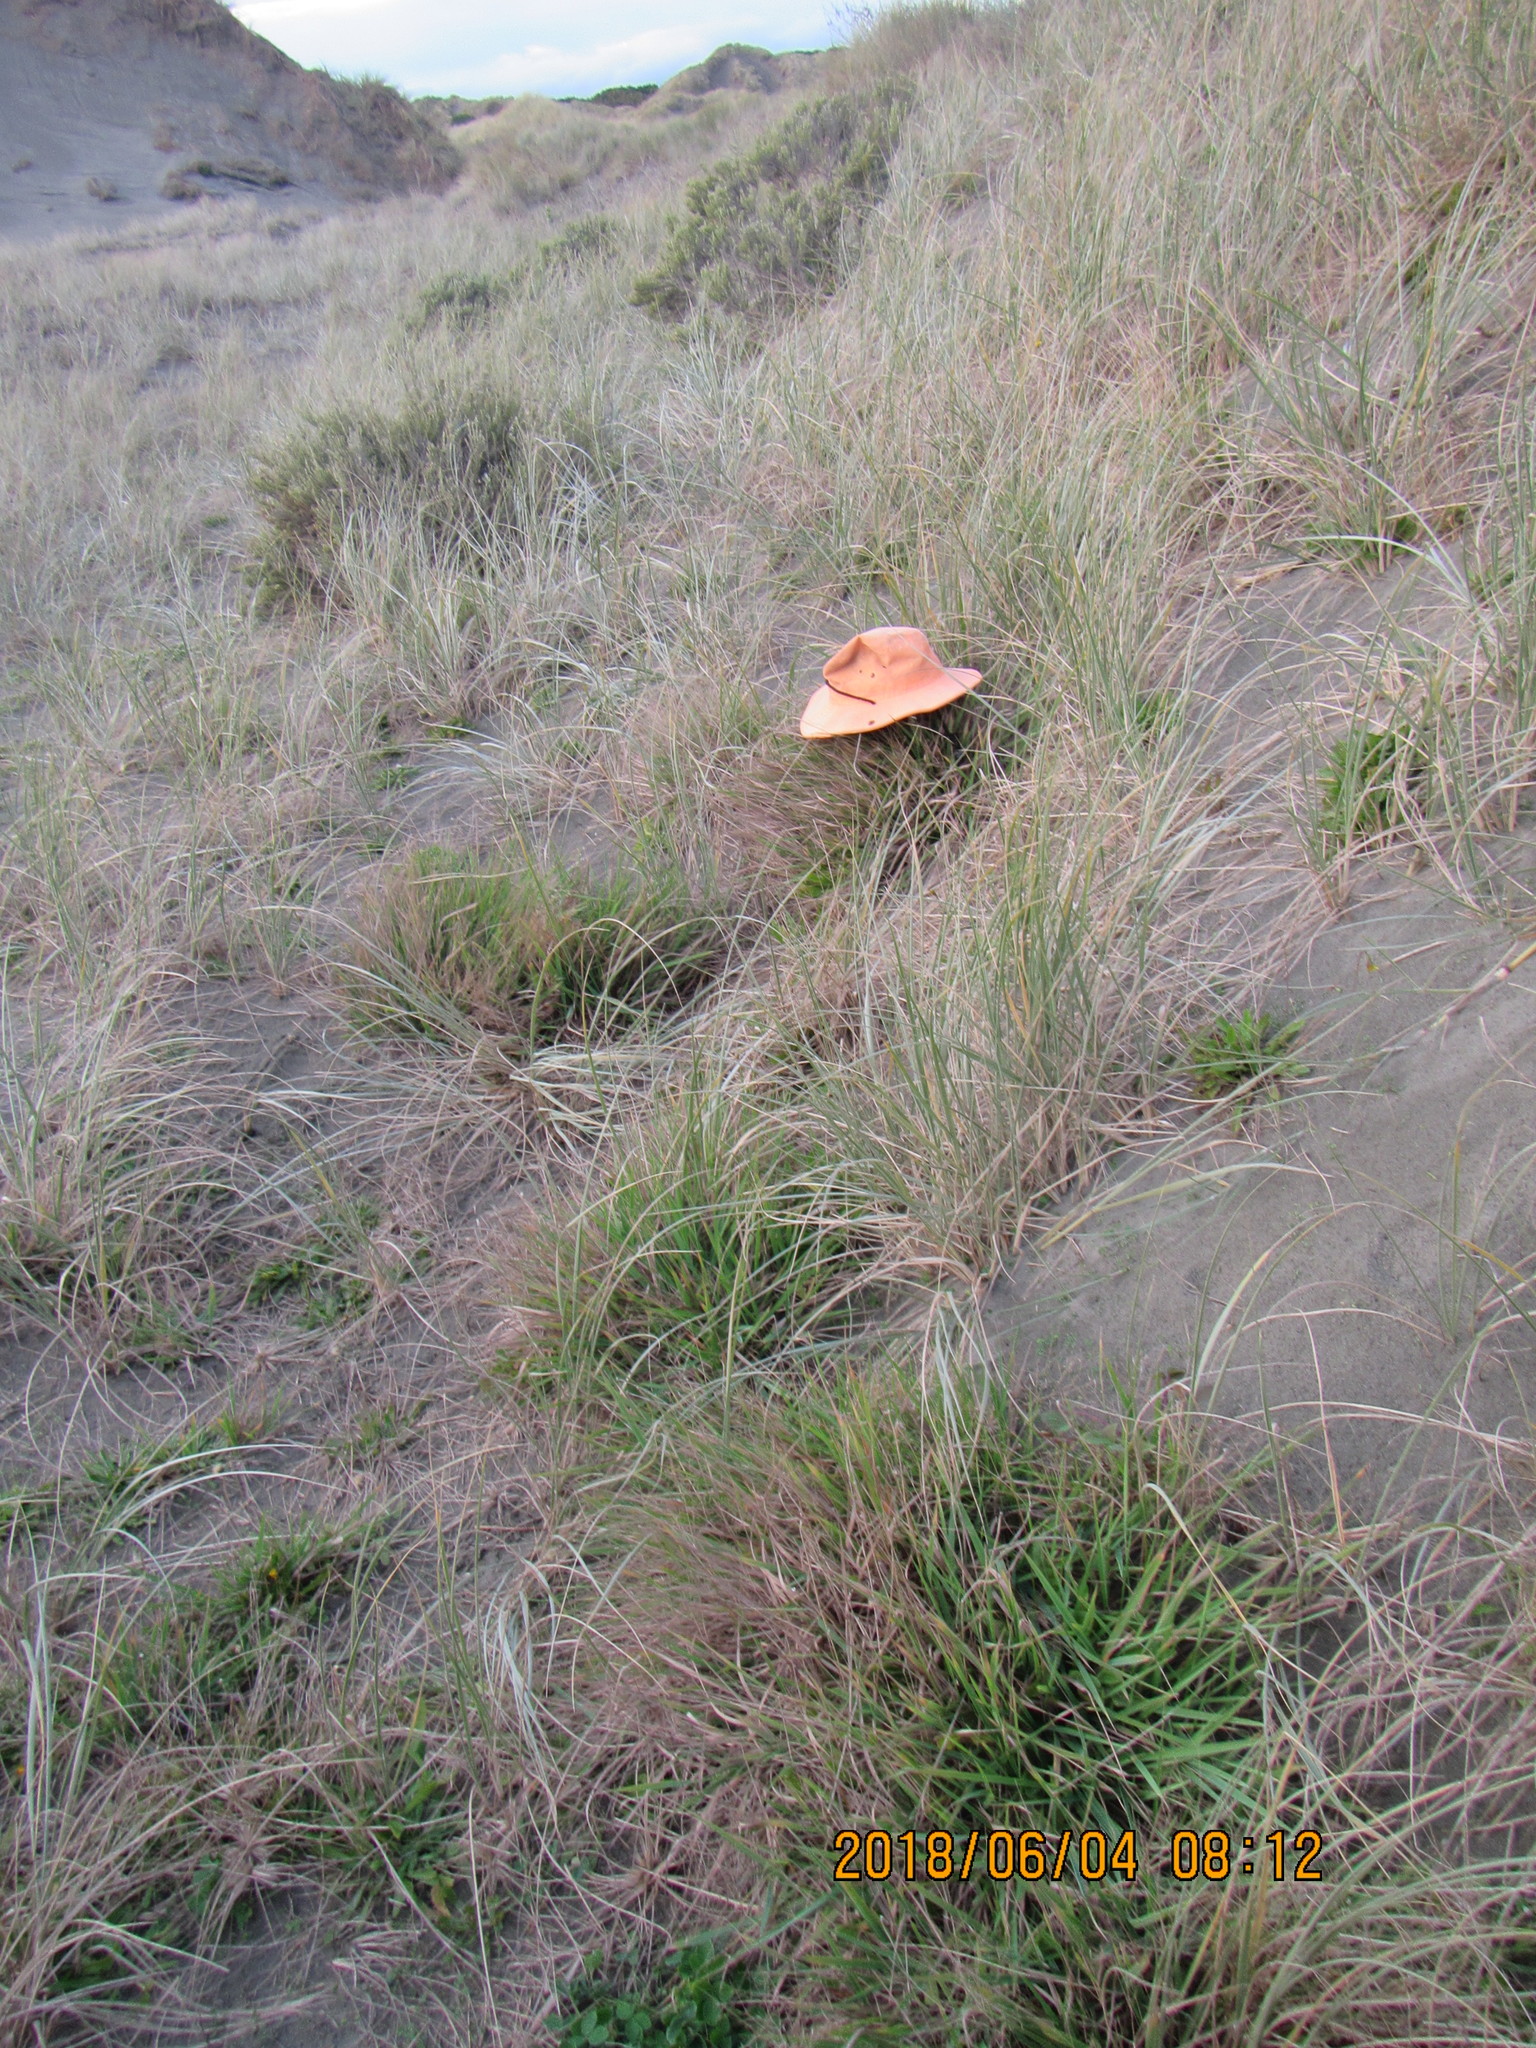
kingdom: Plantae
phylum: Tracheophyta
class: Liliopsida
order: Poales
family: Poaceae
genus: Lachnagrostis
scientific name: Lachnagrostis billardierei
